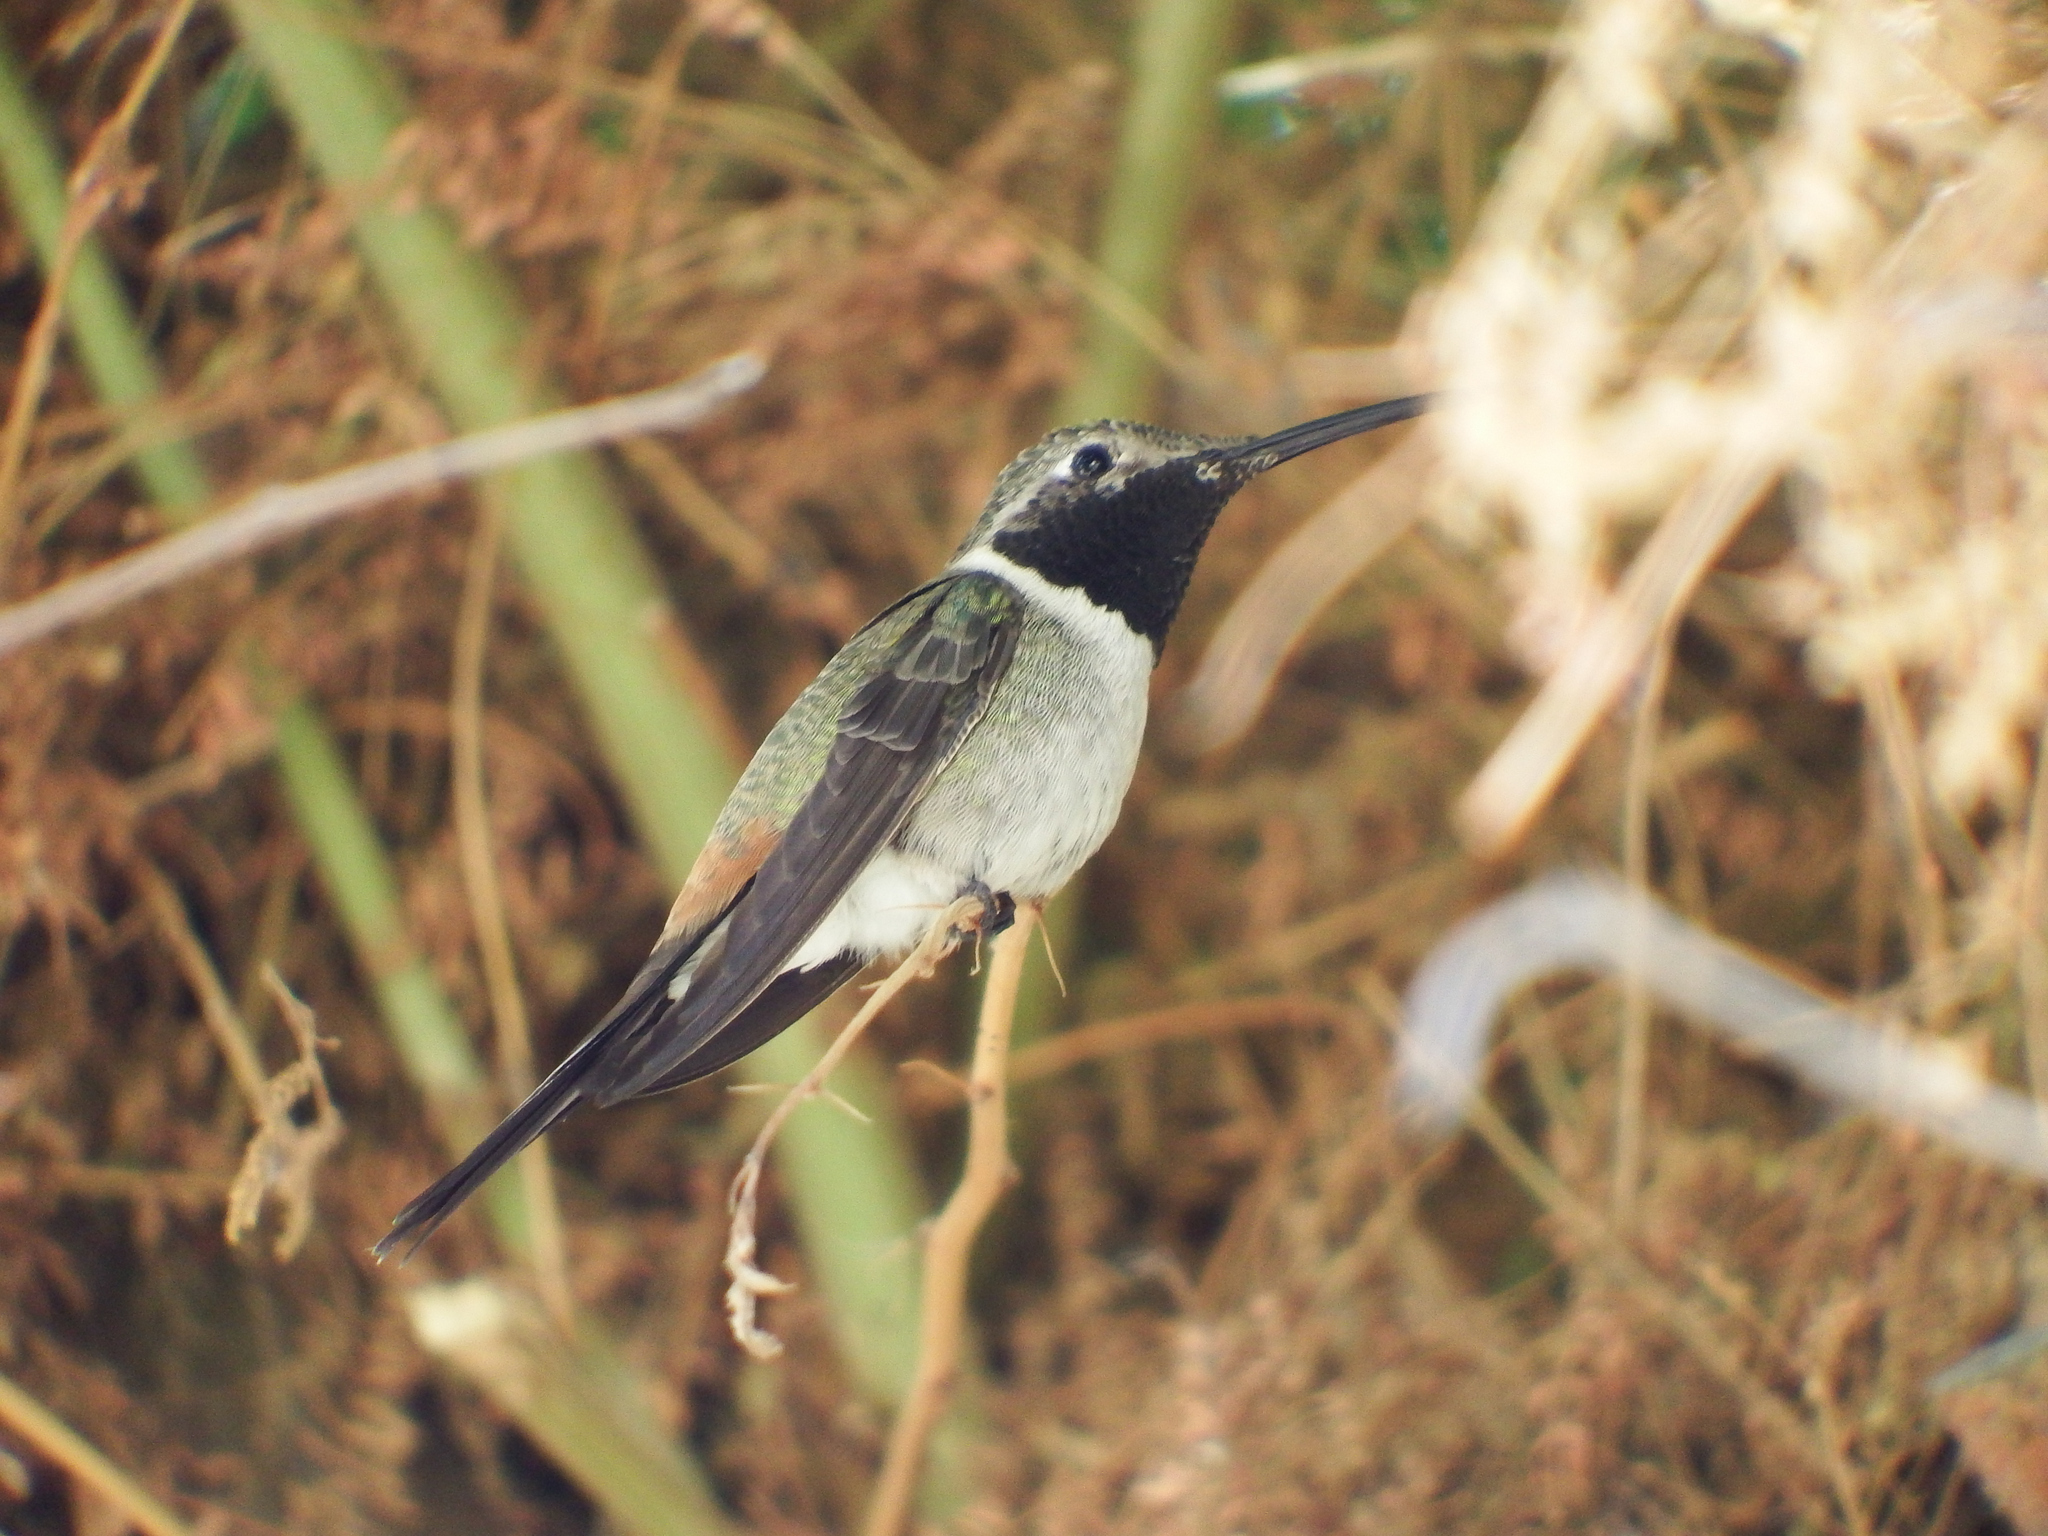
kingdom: Animalia
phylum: Chordata
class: Aves
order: Apodiformes
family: Trochilidae
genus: Rhodopis
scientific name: Rhodopis vesper
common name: Oasis hummingbird
